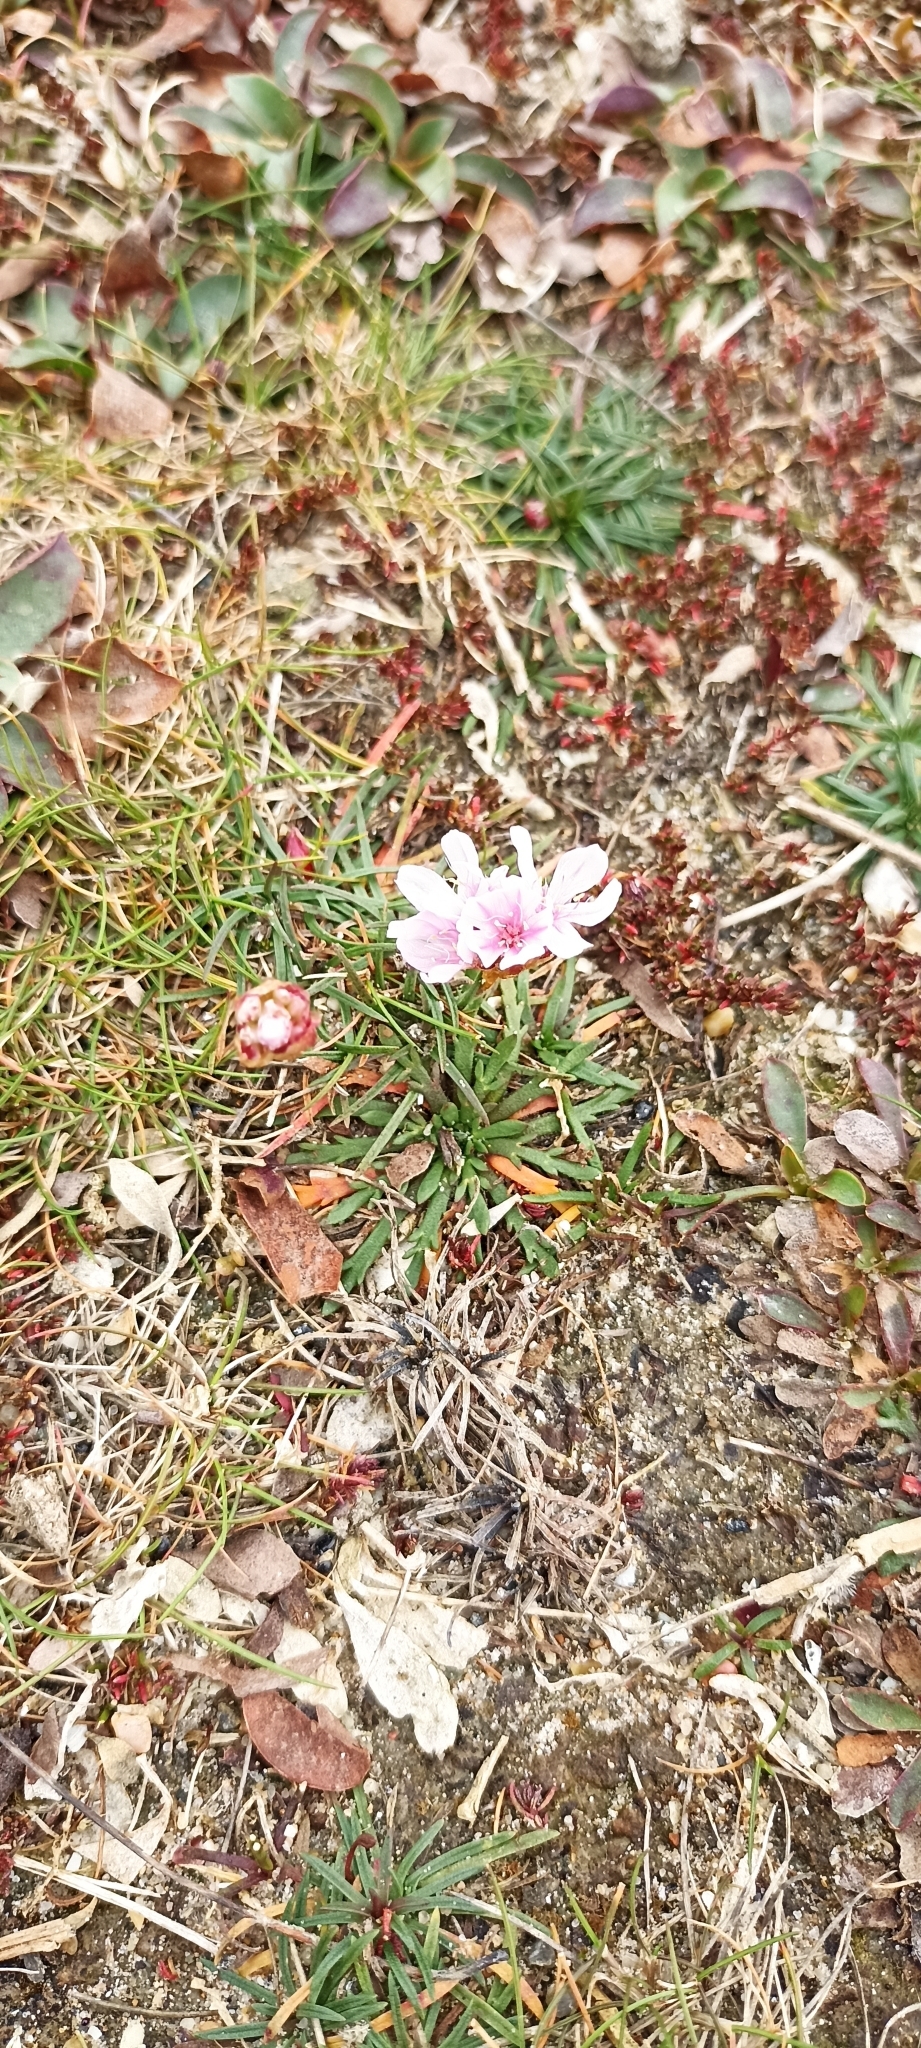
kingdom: Plantae
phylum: Tracheophyta
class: Magnoliopsida
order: Caryophyllales
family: Plumbaginaceae
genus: Armeria
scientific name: Armeria maritima
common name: Thrift
